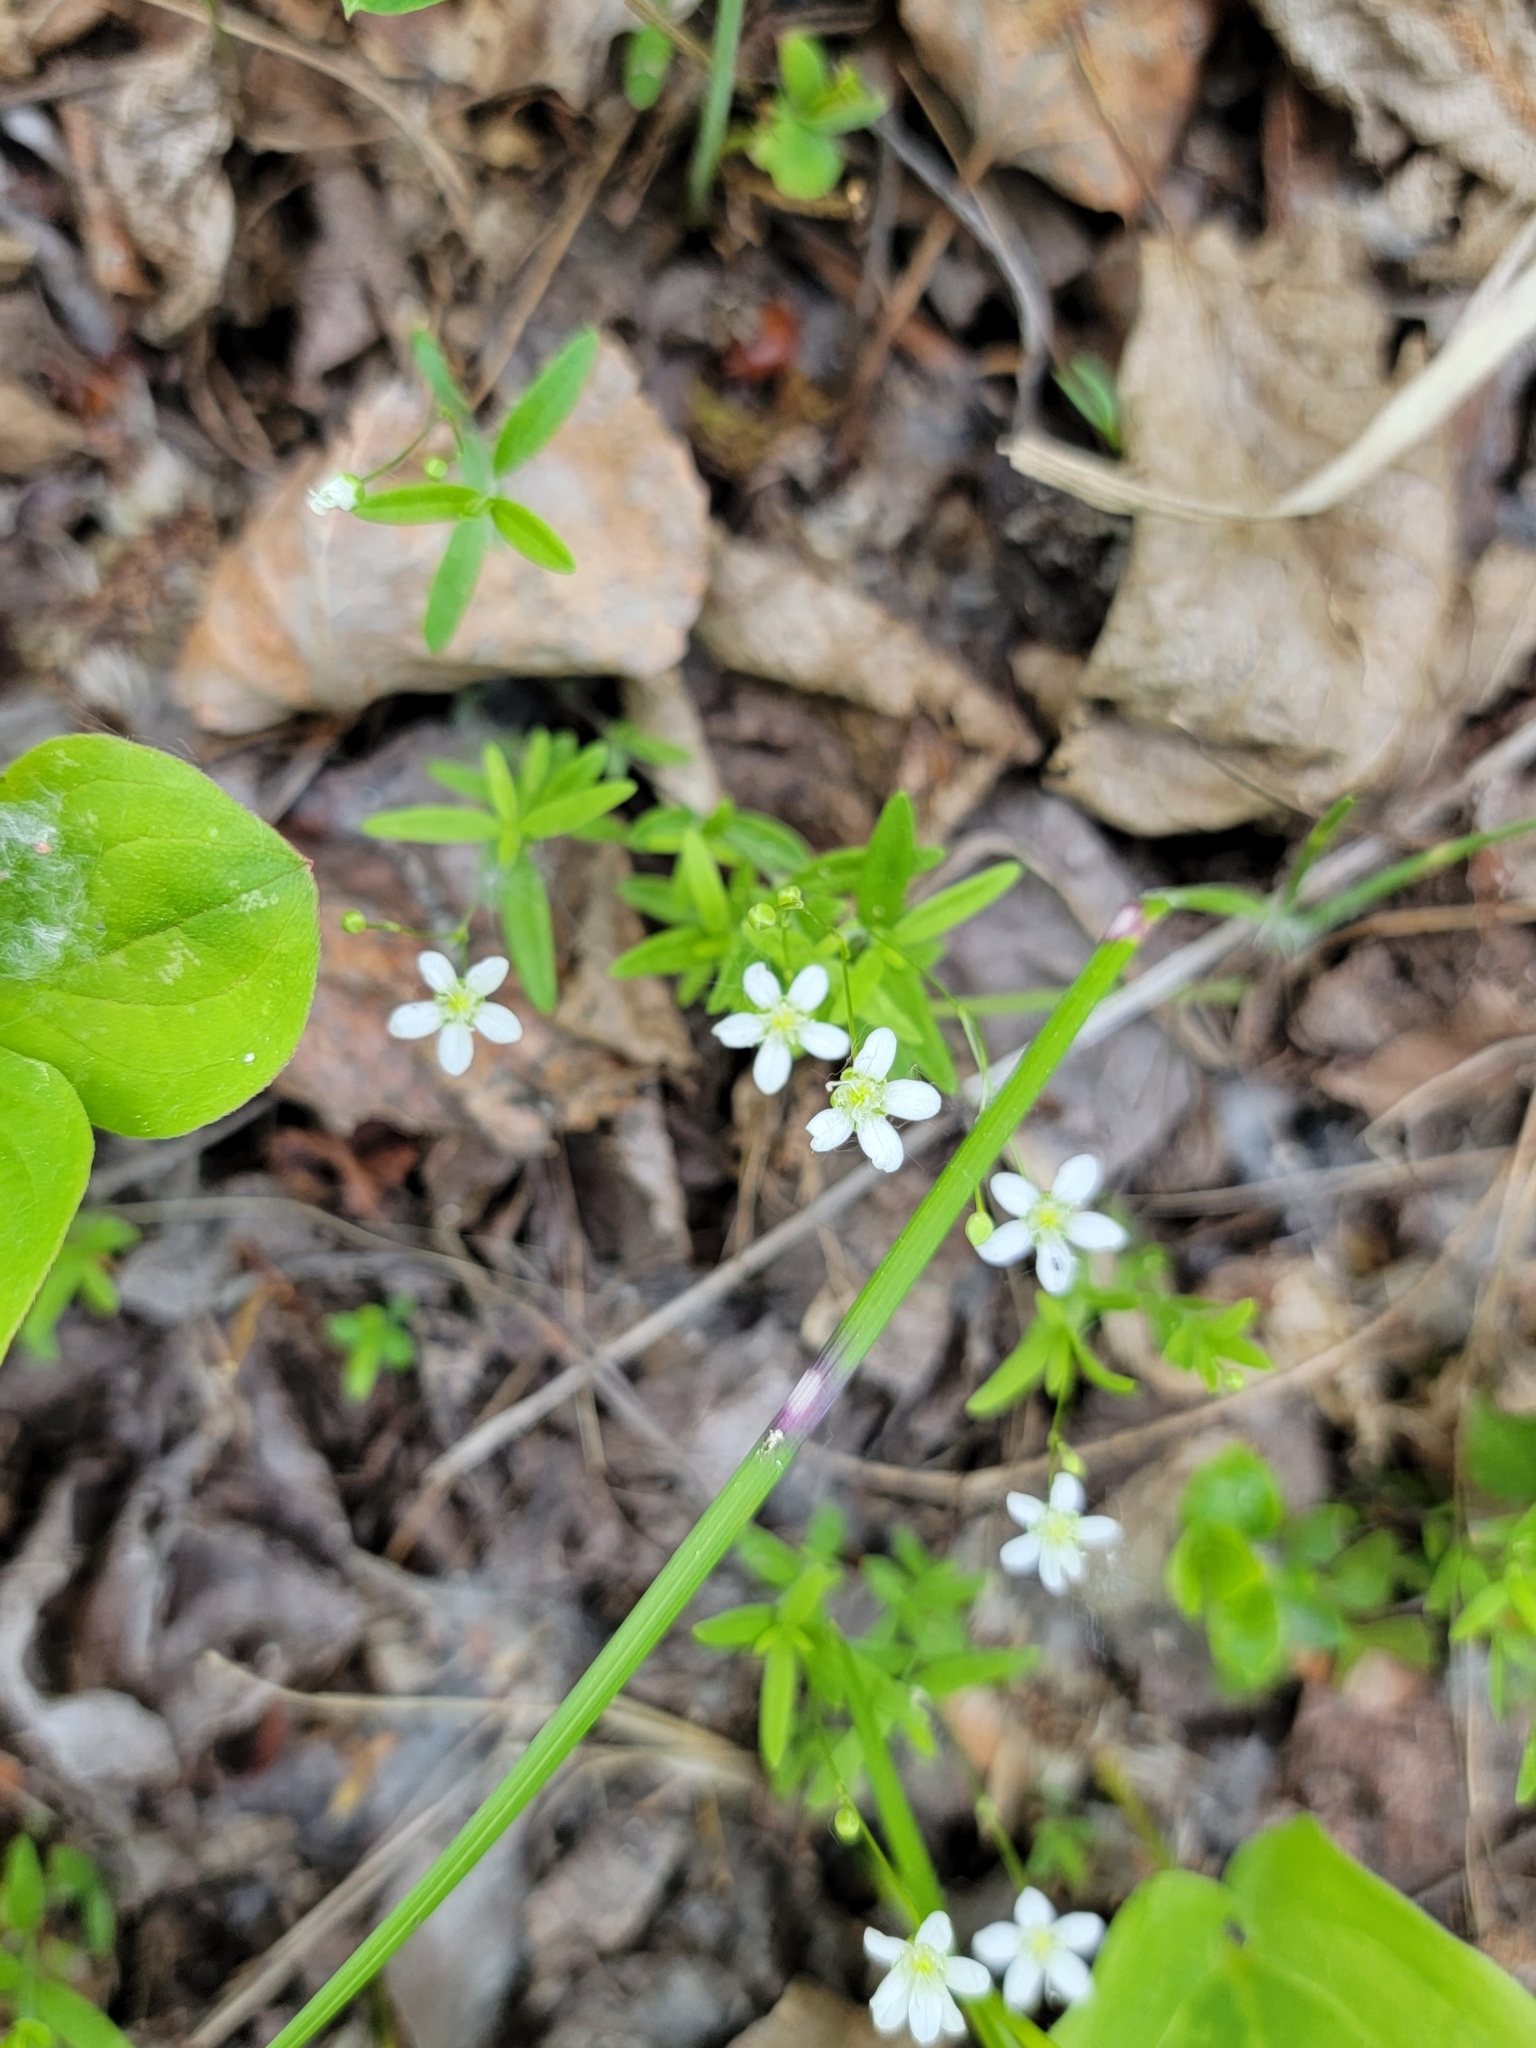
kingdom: Plantae
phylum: Tracheophyta
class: Magnoliopsida
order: Caryophyllales
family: Caryophyllaceae
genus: Moehringia
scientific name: Moehringia lateriflora
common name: Blunt-leaved sandwort
